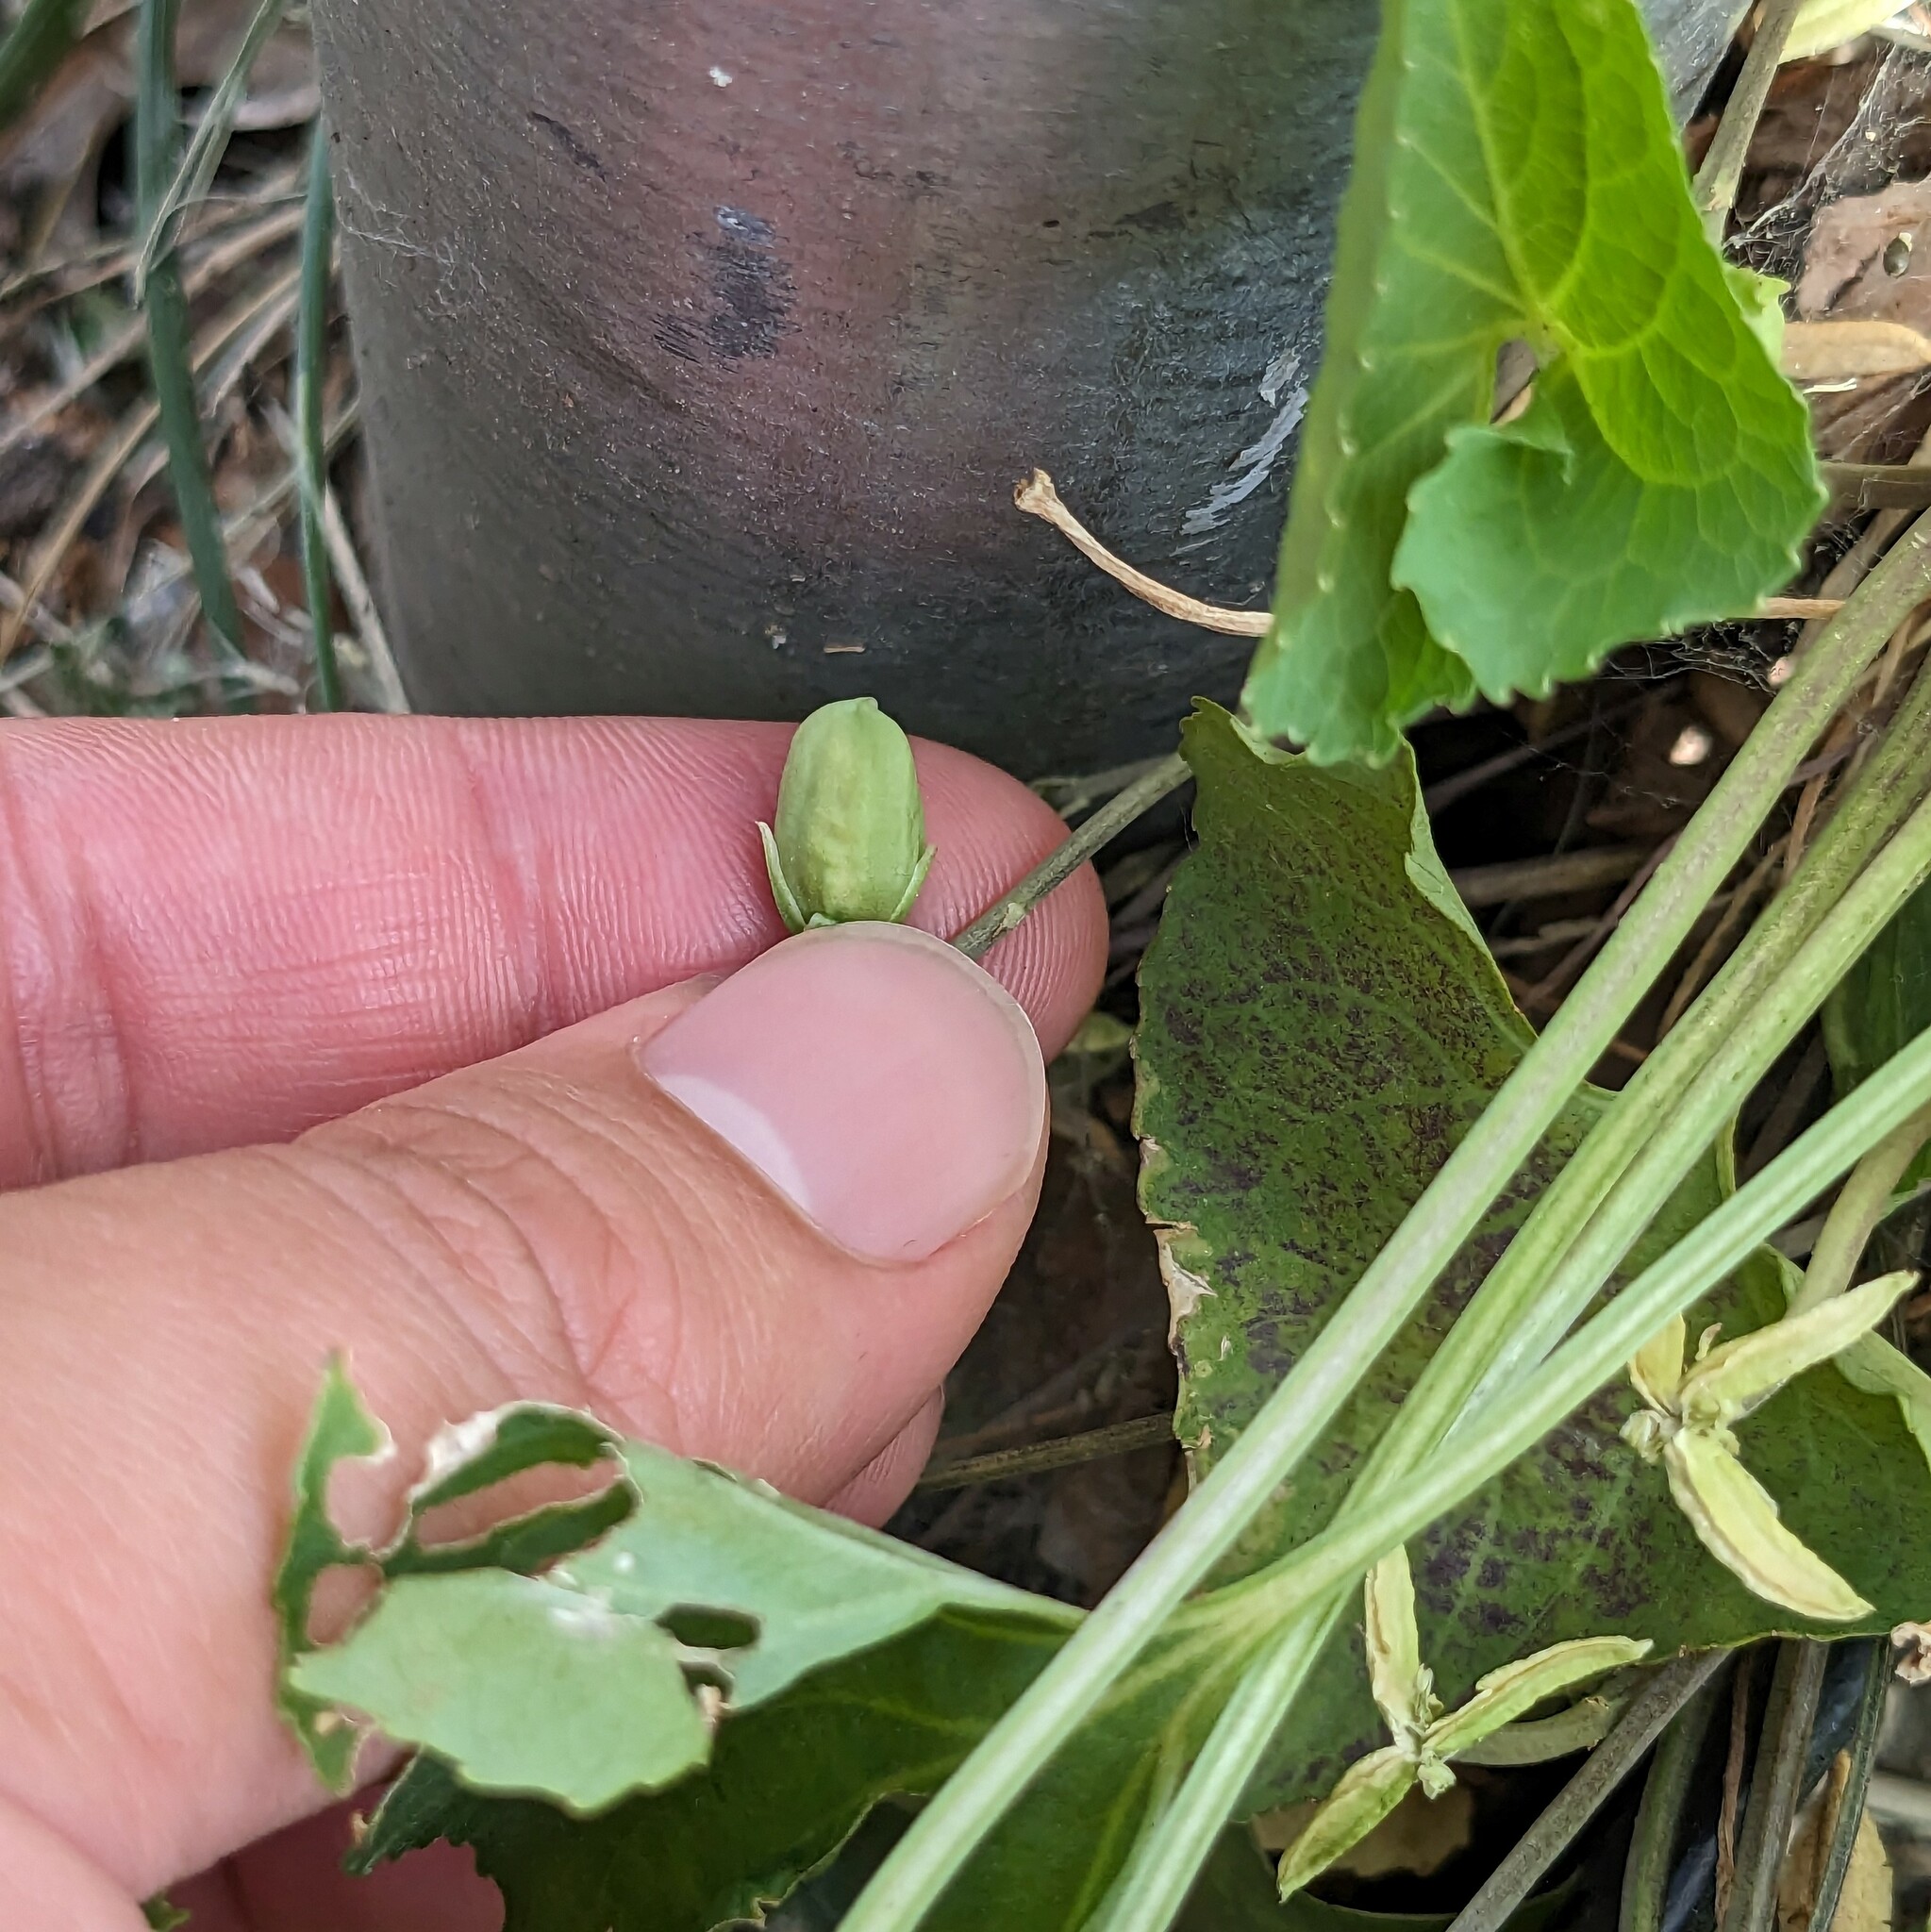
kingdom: Plantae
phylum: Tracheophyta
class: Magnoliopsida
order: Malpighiales
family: Violaceae
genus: Viola
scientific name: Viola sororia
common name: Dooryard violet
